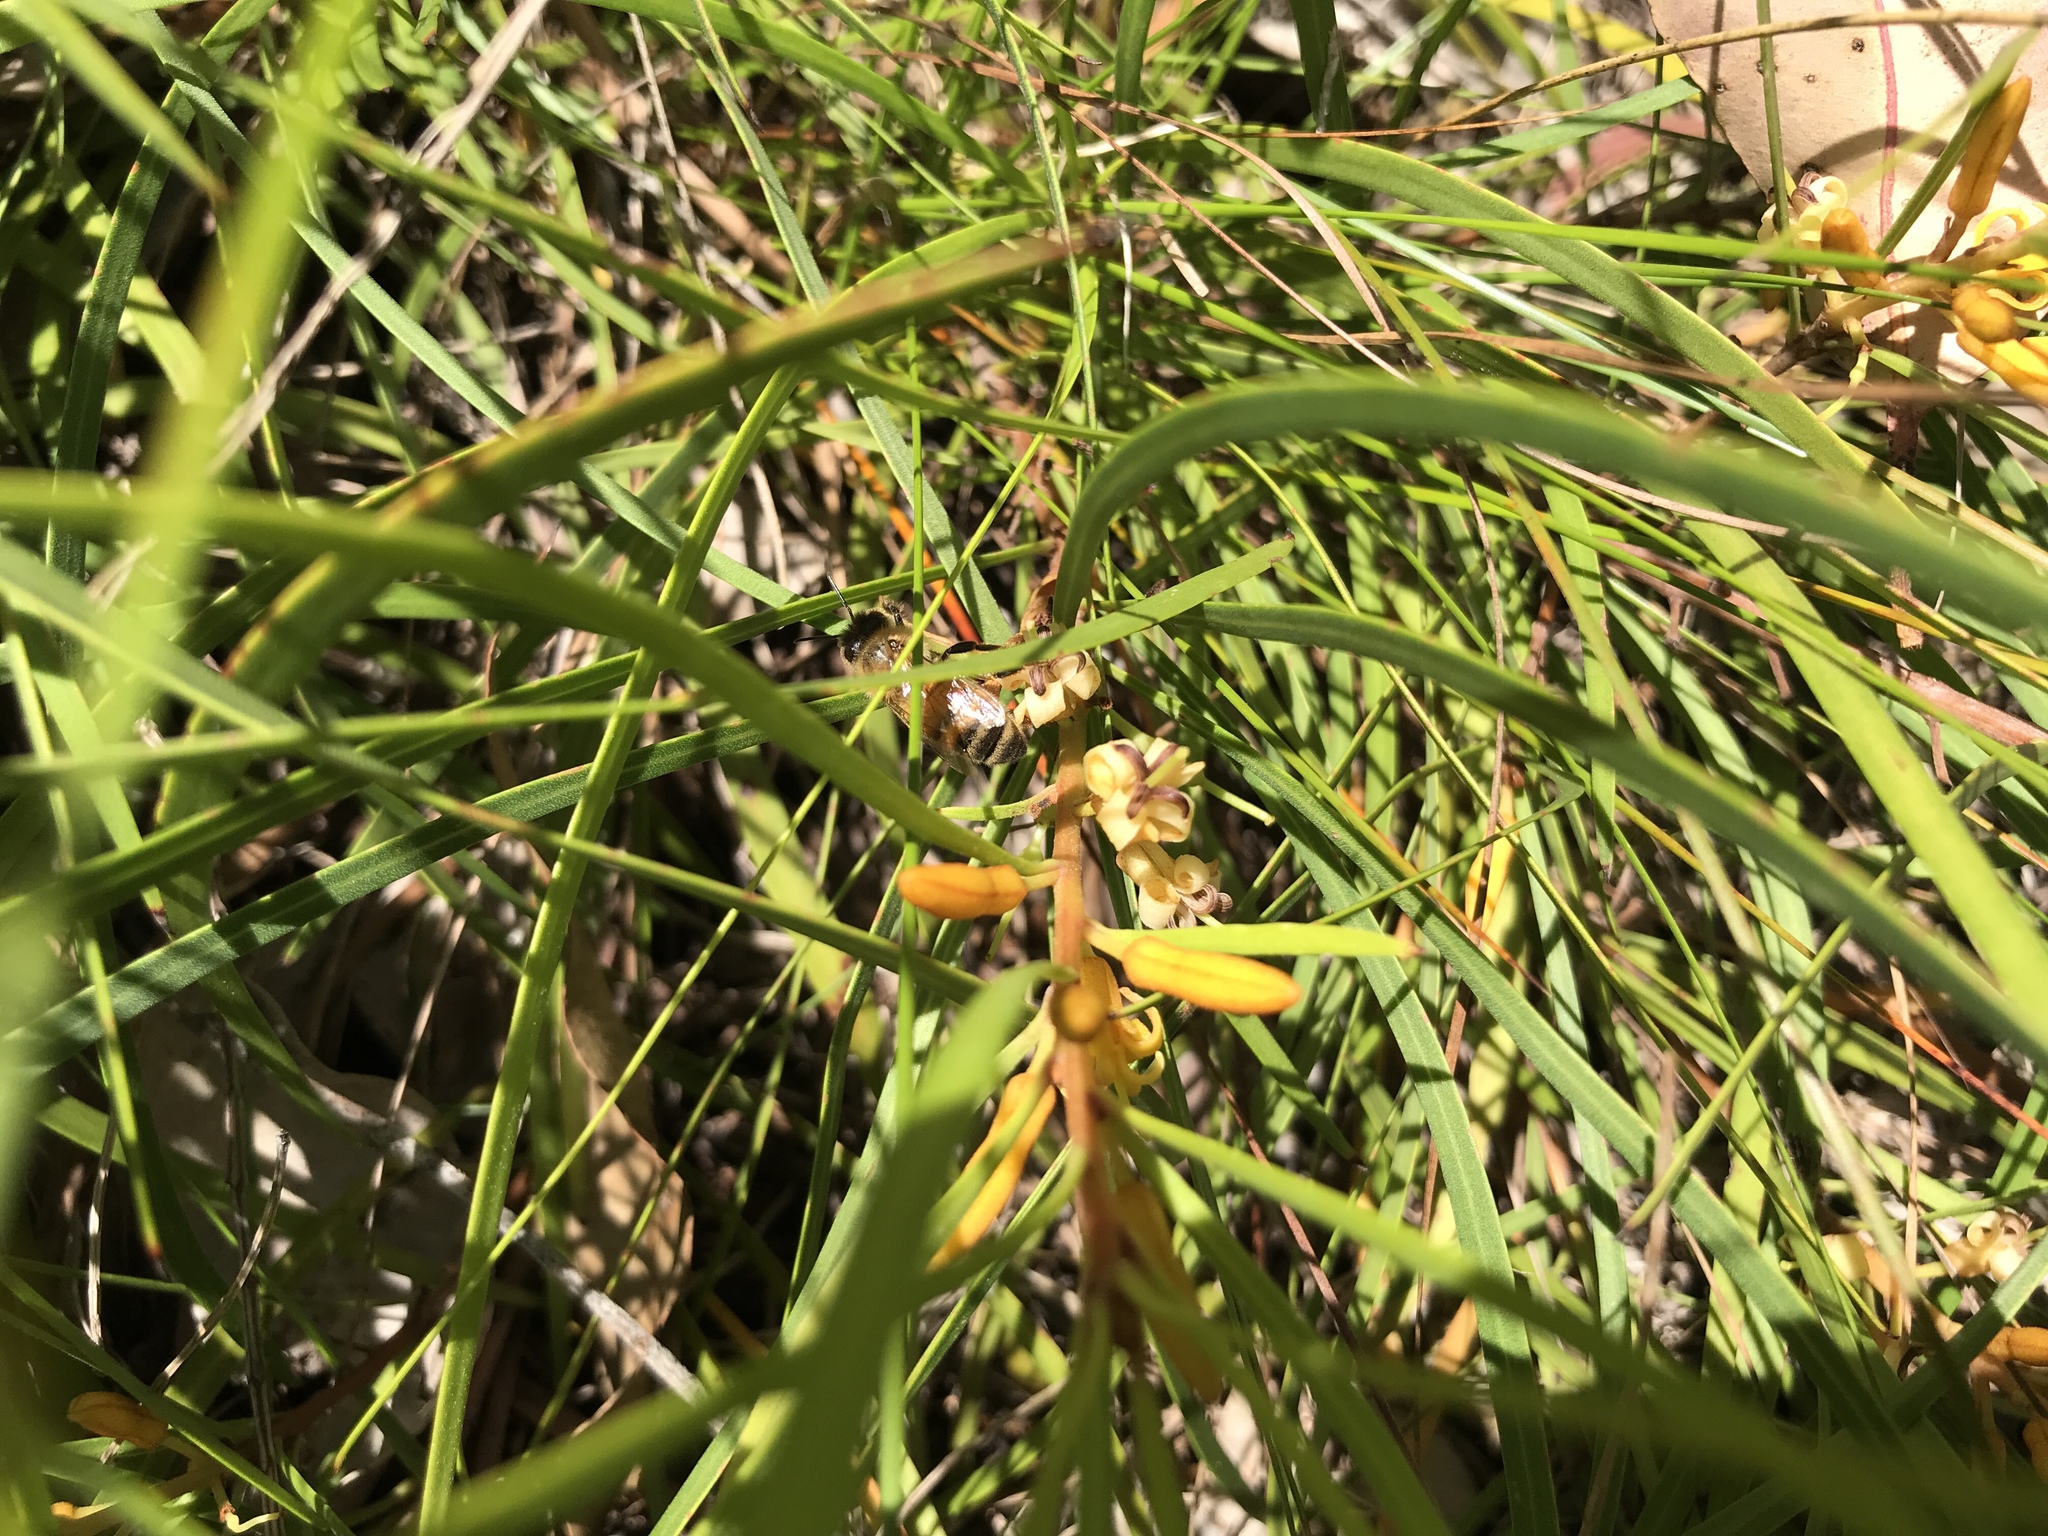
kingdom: Plantae
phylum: Tracheophyta
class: Magnoliopsida
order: Proteales
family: Proteaceae
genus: Persoonia
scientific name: Persoonia longifolia
